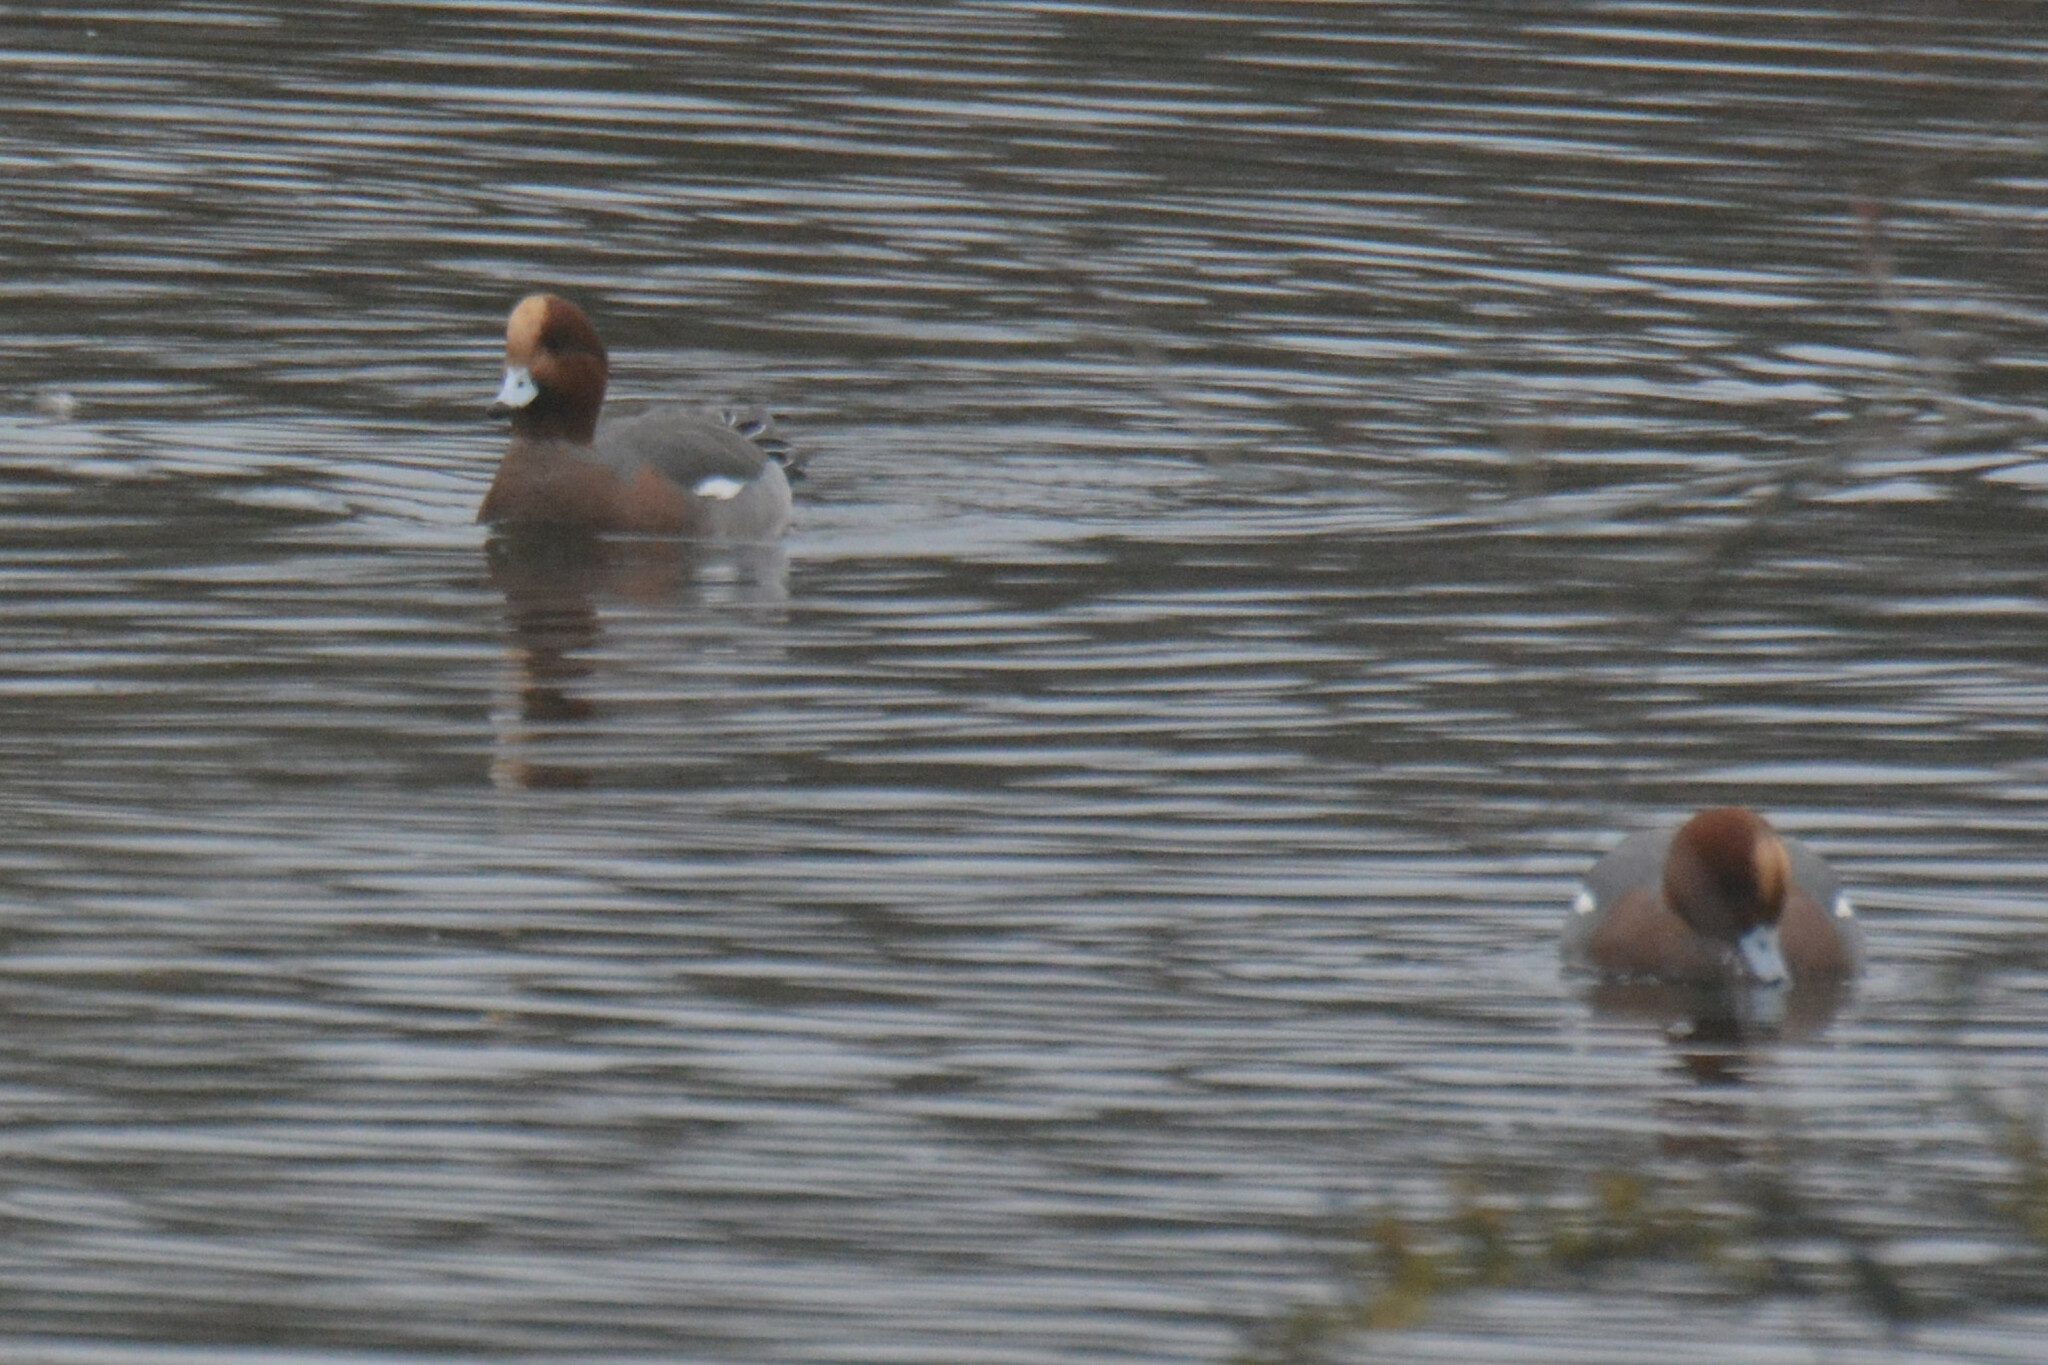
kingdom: Animalia
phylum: Chordata
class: Aves
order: Anseriformes
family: Anatidae
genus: Mareca
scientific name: Mareca penelope
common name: Eurasian wigeon
